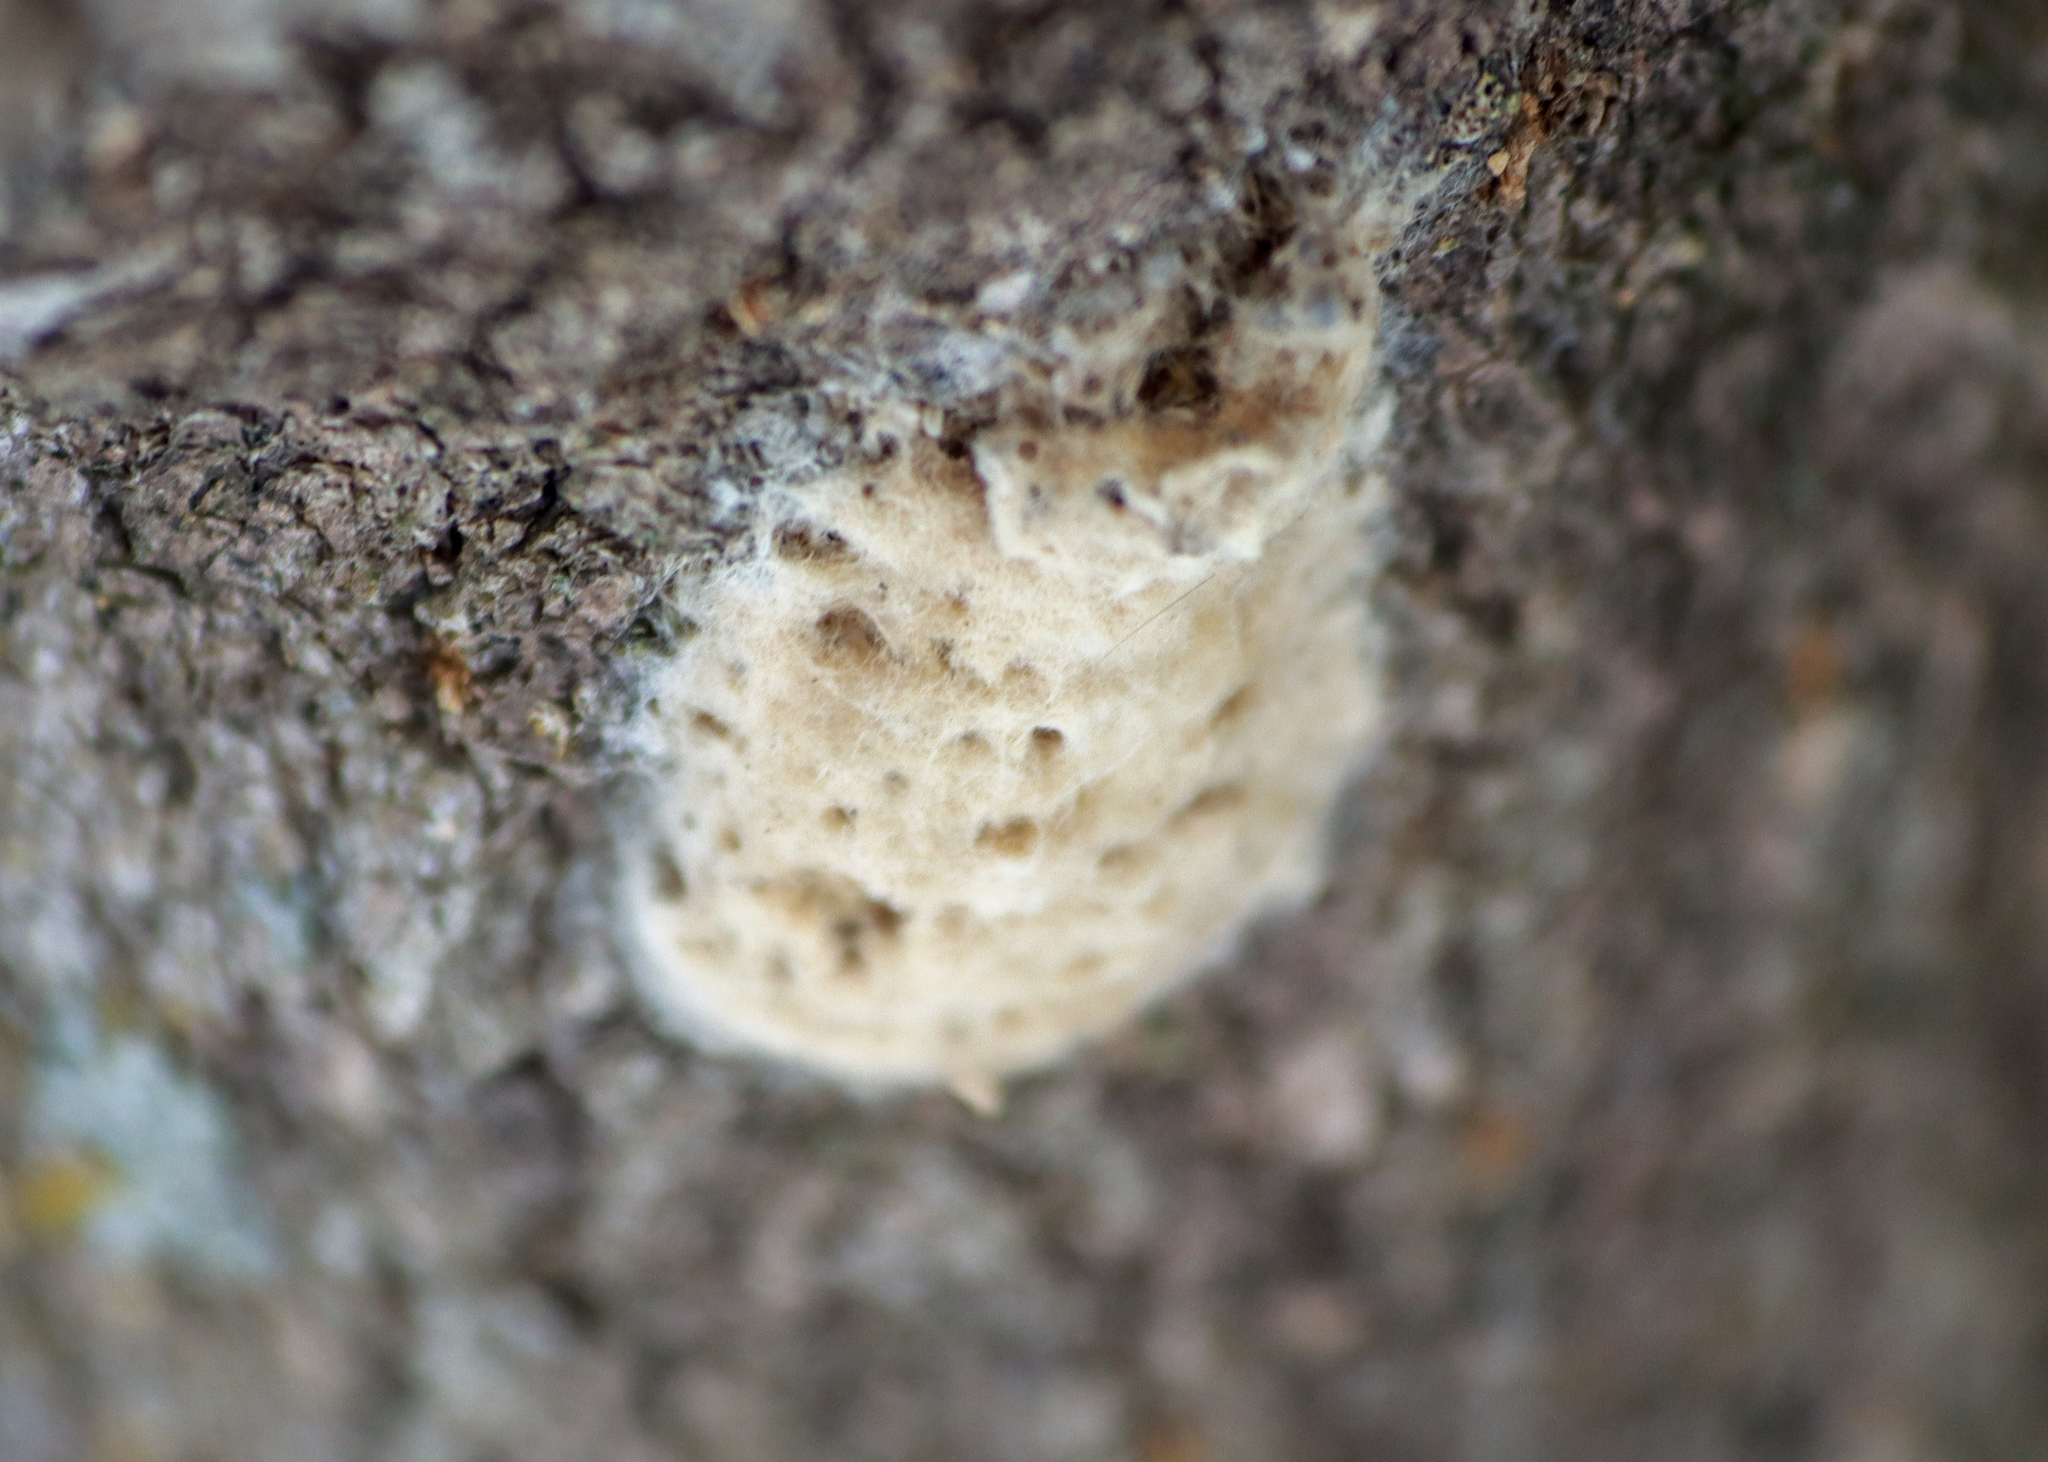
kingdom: Animalia
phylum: Arthropoda
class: Insecta
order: Lepidoptera
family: Erebidae
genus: Lymantria
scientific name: Lymantria dispar
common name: Gypsy moth
